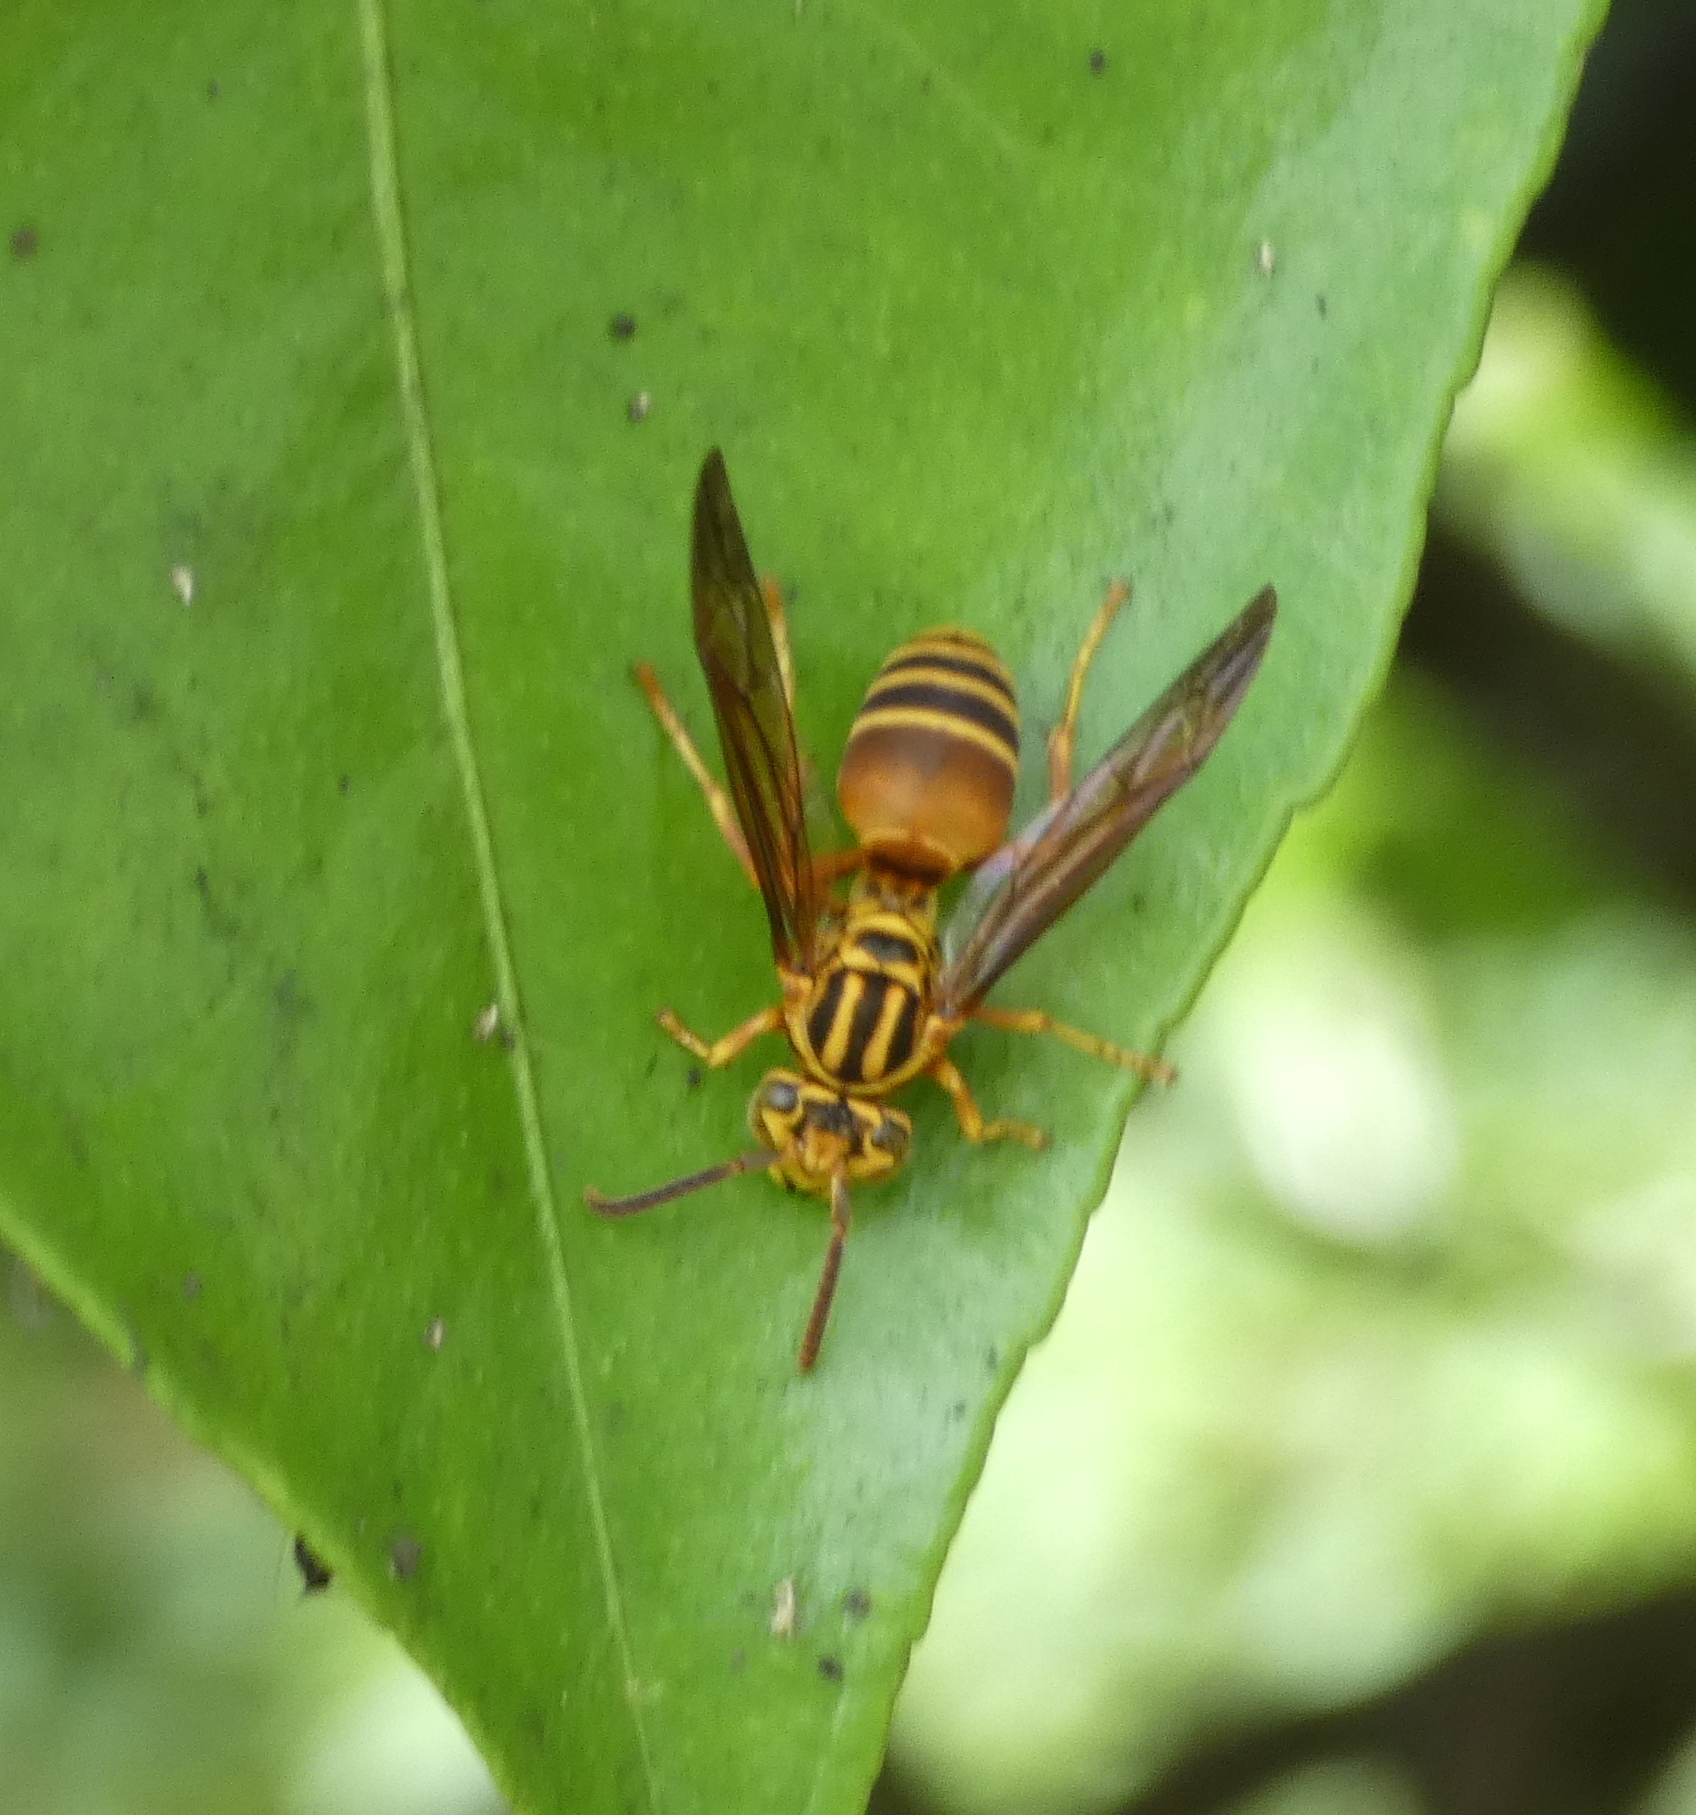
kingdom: Animalia
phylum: Arthropoda
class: Insecta
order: Hymenoptera
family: Vespidae
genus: Parachartergus
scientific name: Parachartergus vespiceps
